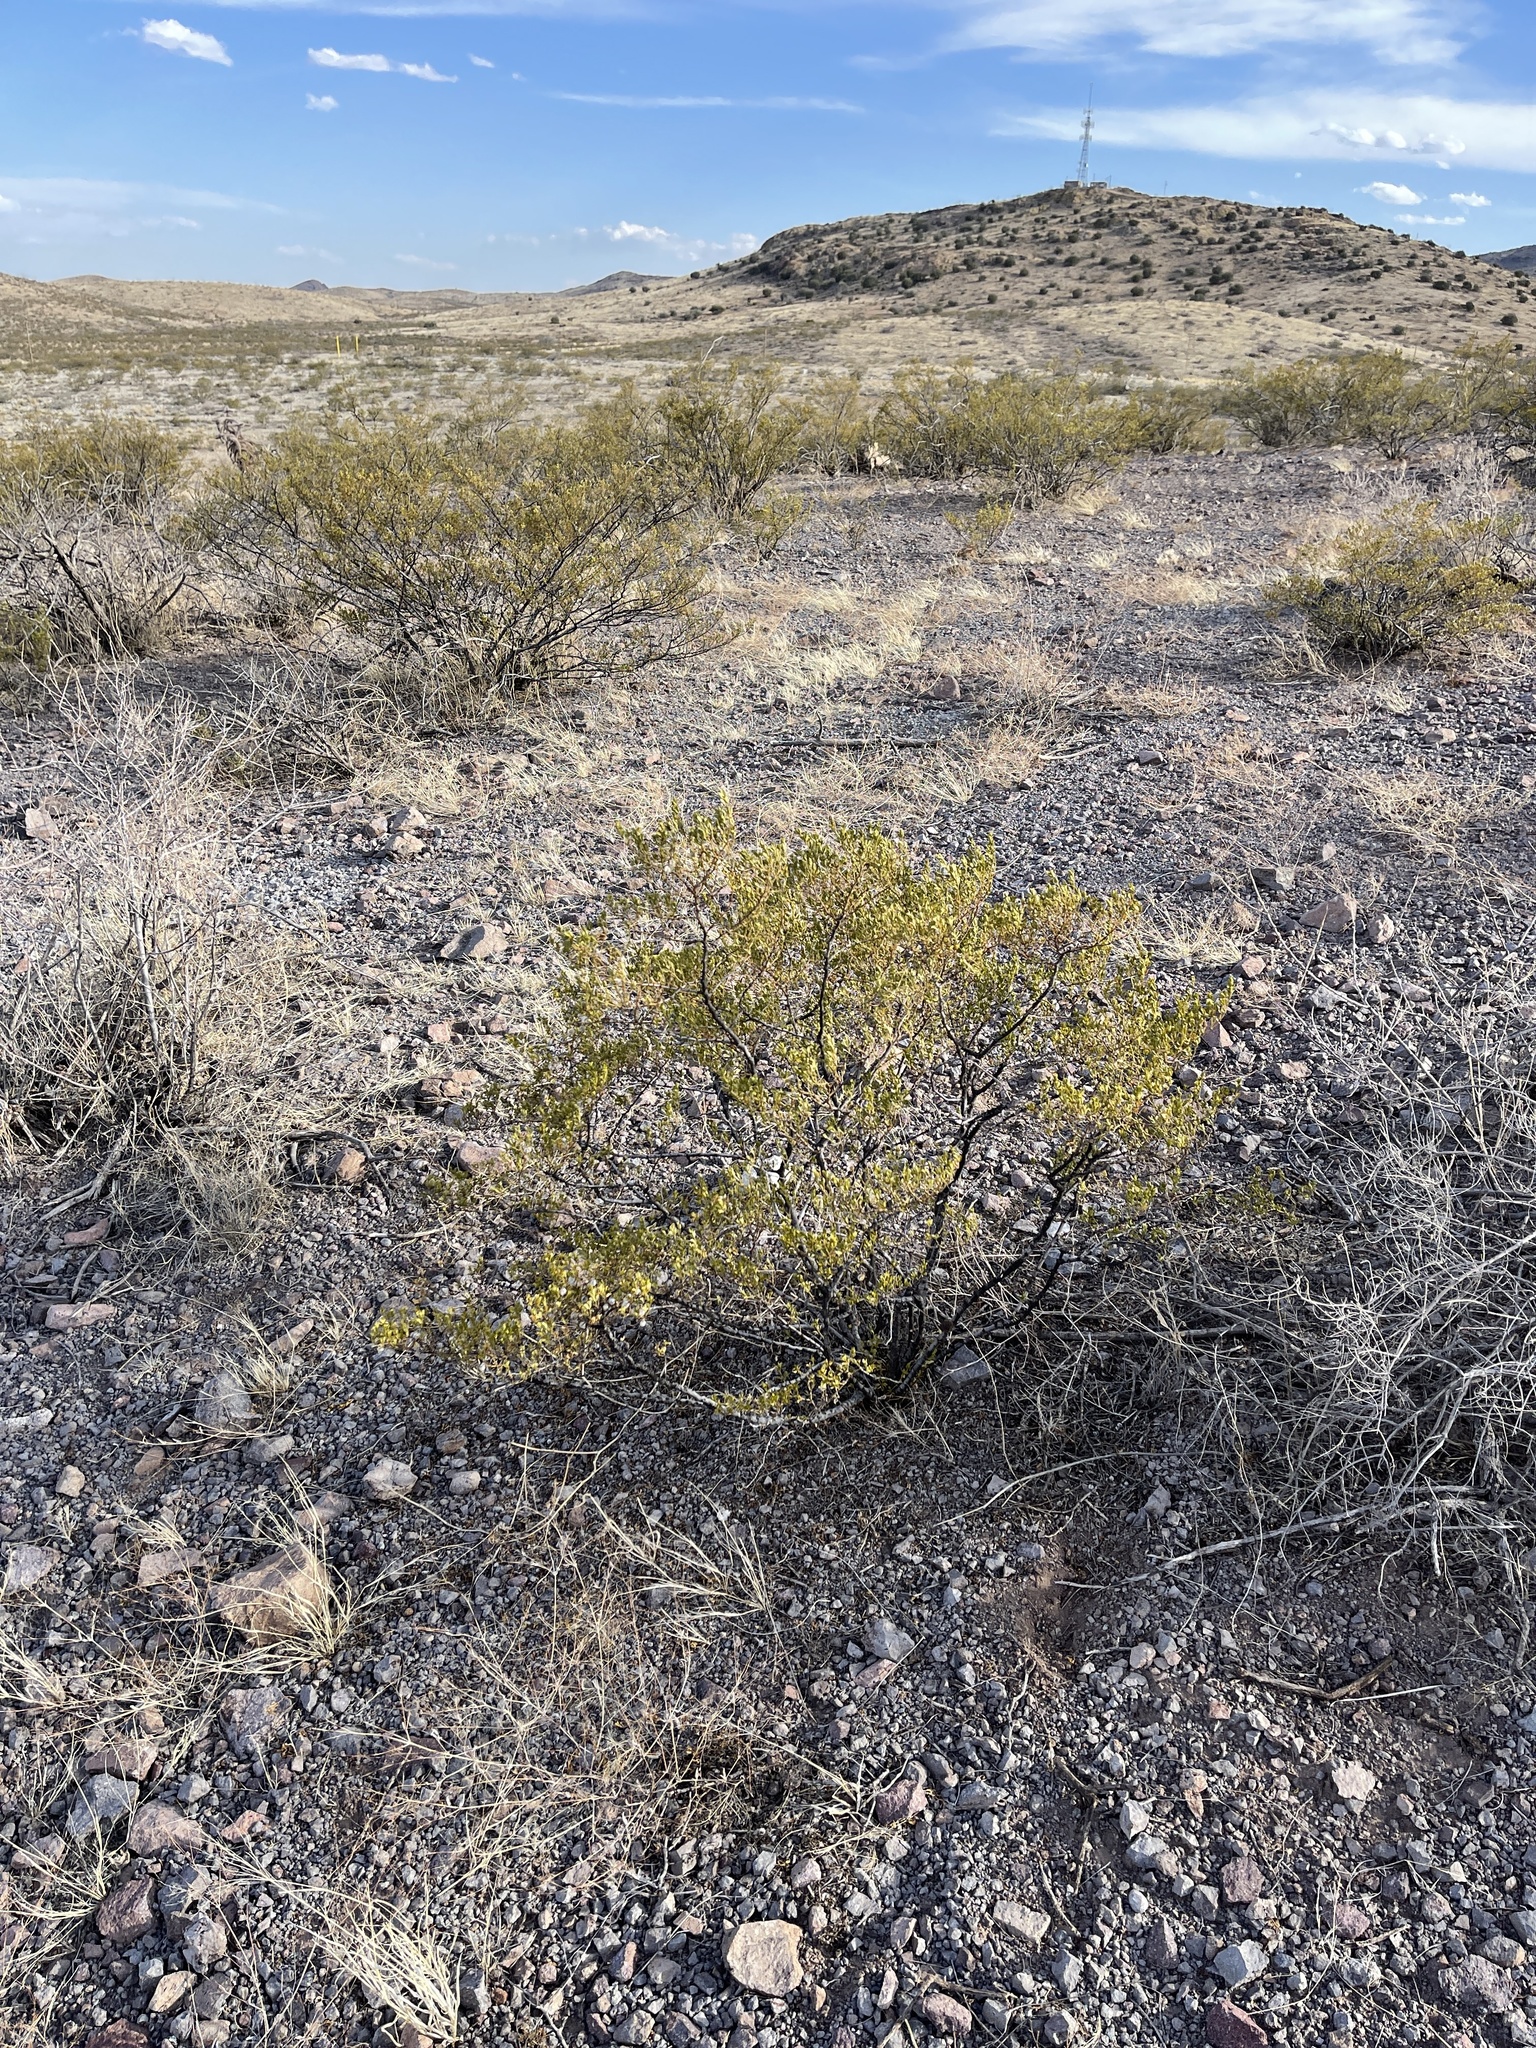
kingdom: Plantae
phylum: Tracheophyta
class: Magnoliopsida
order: Zygophyllales
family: Zygophyllaceae
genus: Larrea
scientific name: Larrea tridentata
